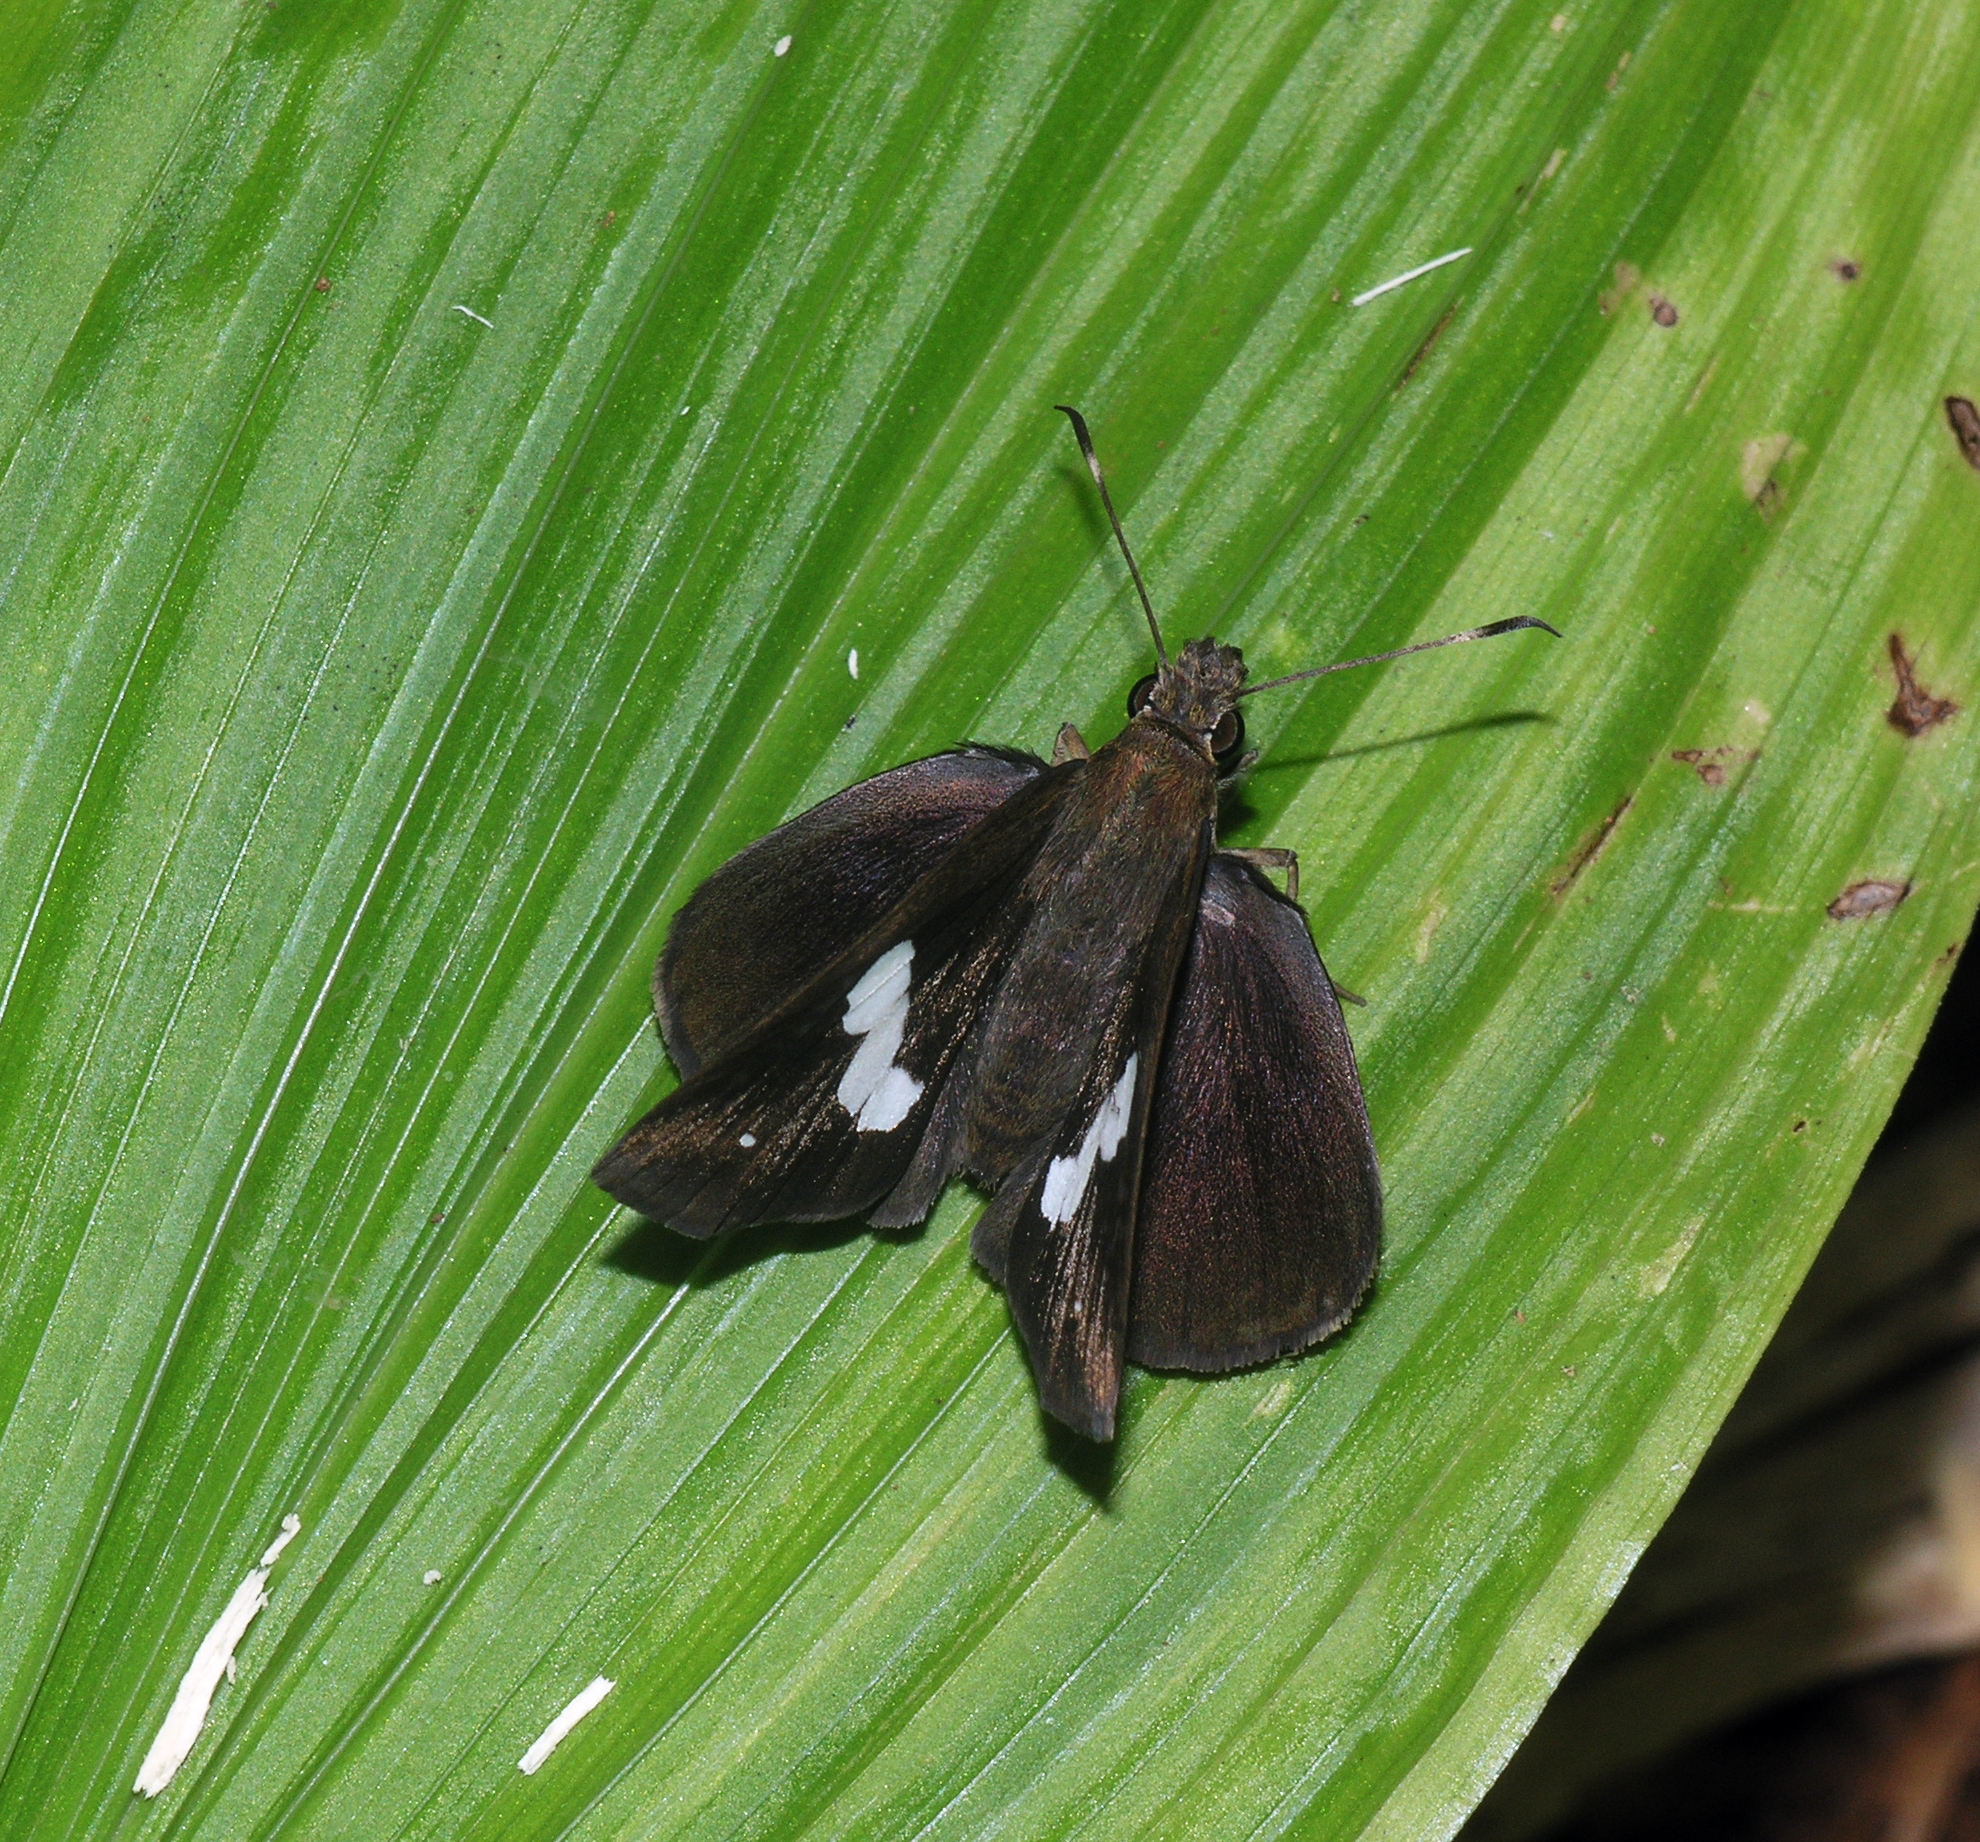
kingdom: Animalia
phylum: Arthropoda
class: Insecta
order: Lepidoptera
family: Hesperiidae
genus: Notocrypta
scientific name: Notocrypta paralysos
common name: Common banded demon
